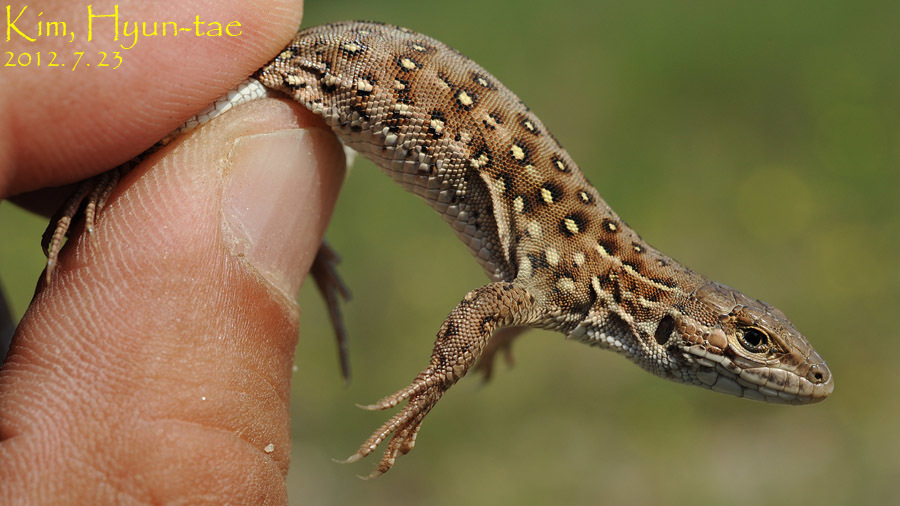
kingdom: Animalia
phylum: Chordata
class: Squamata
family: Lacertidae
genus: Eremias
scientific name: Eremias argus
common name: Mongolia racerunner
